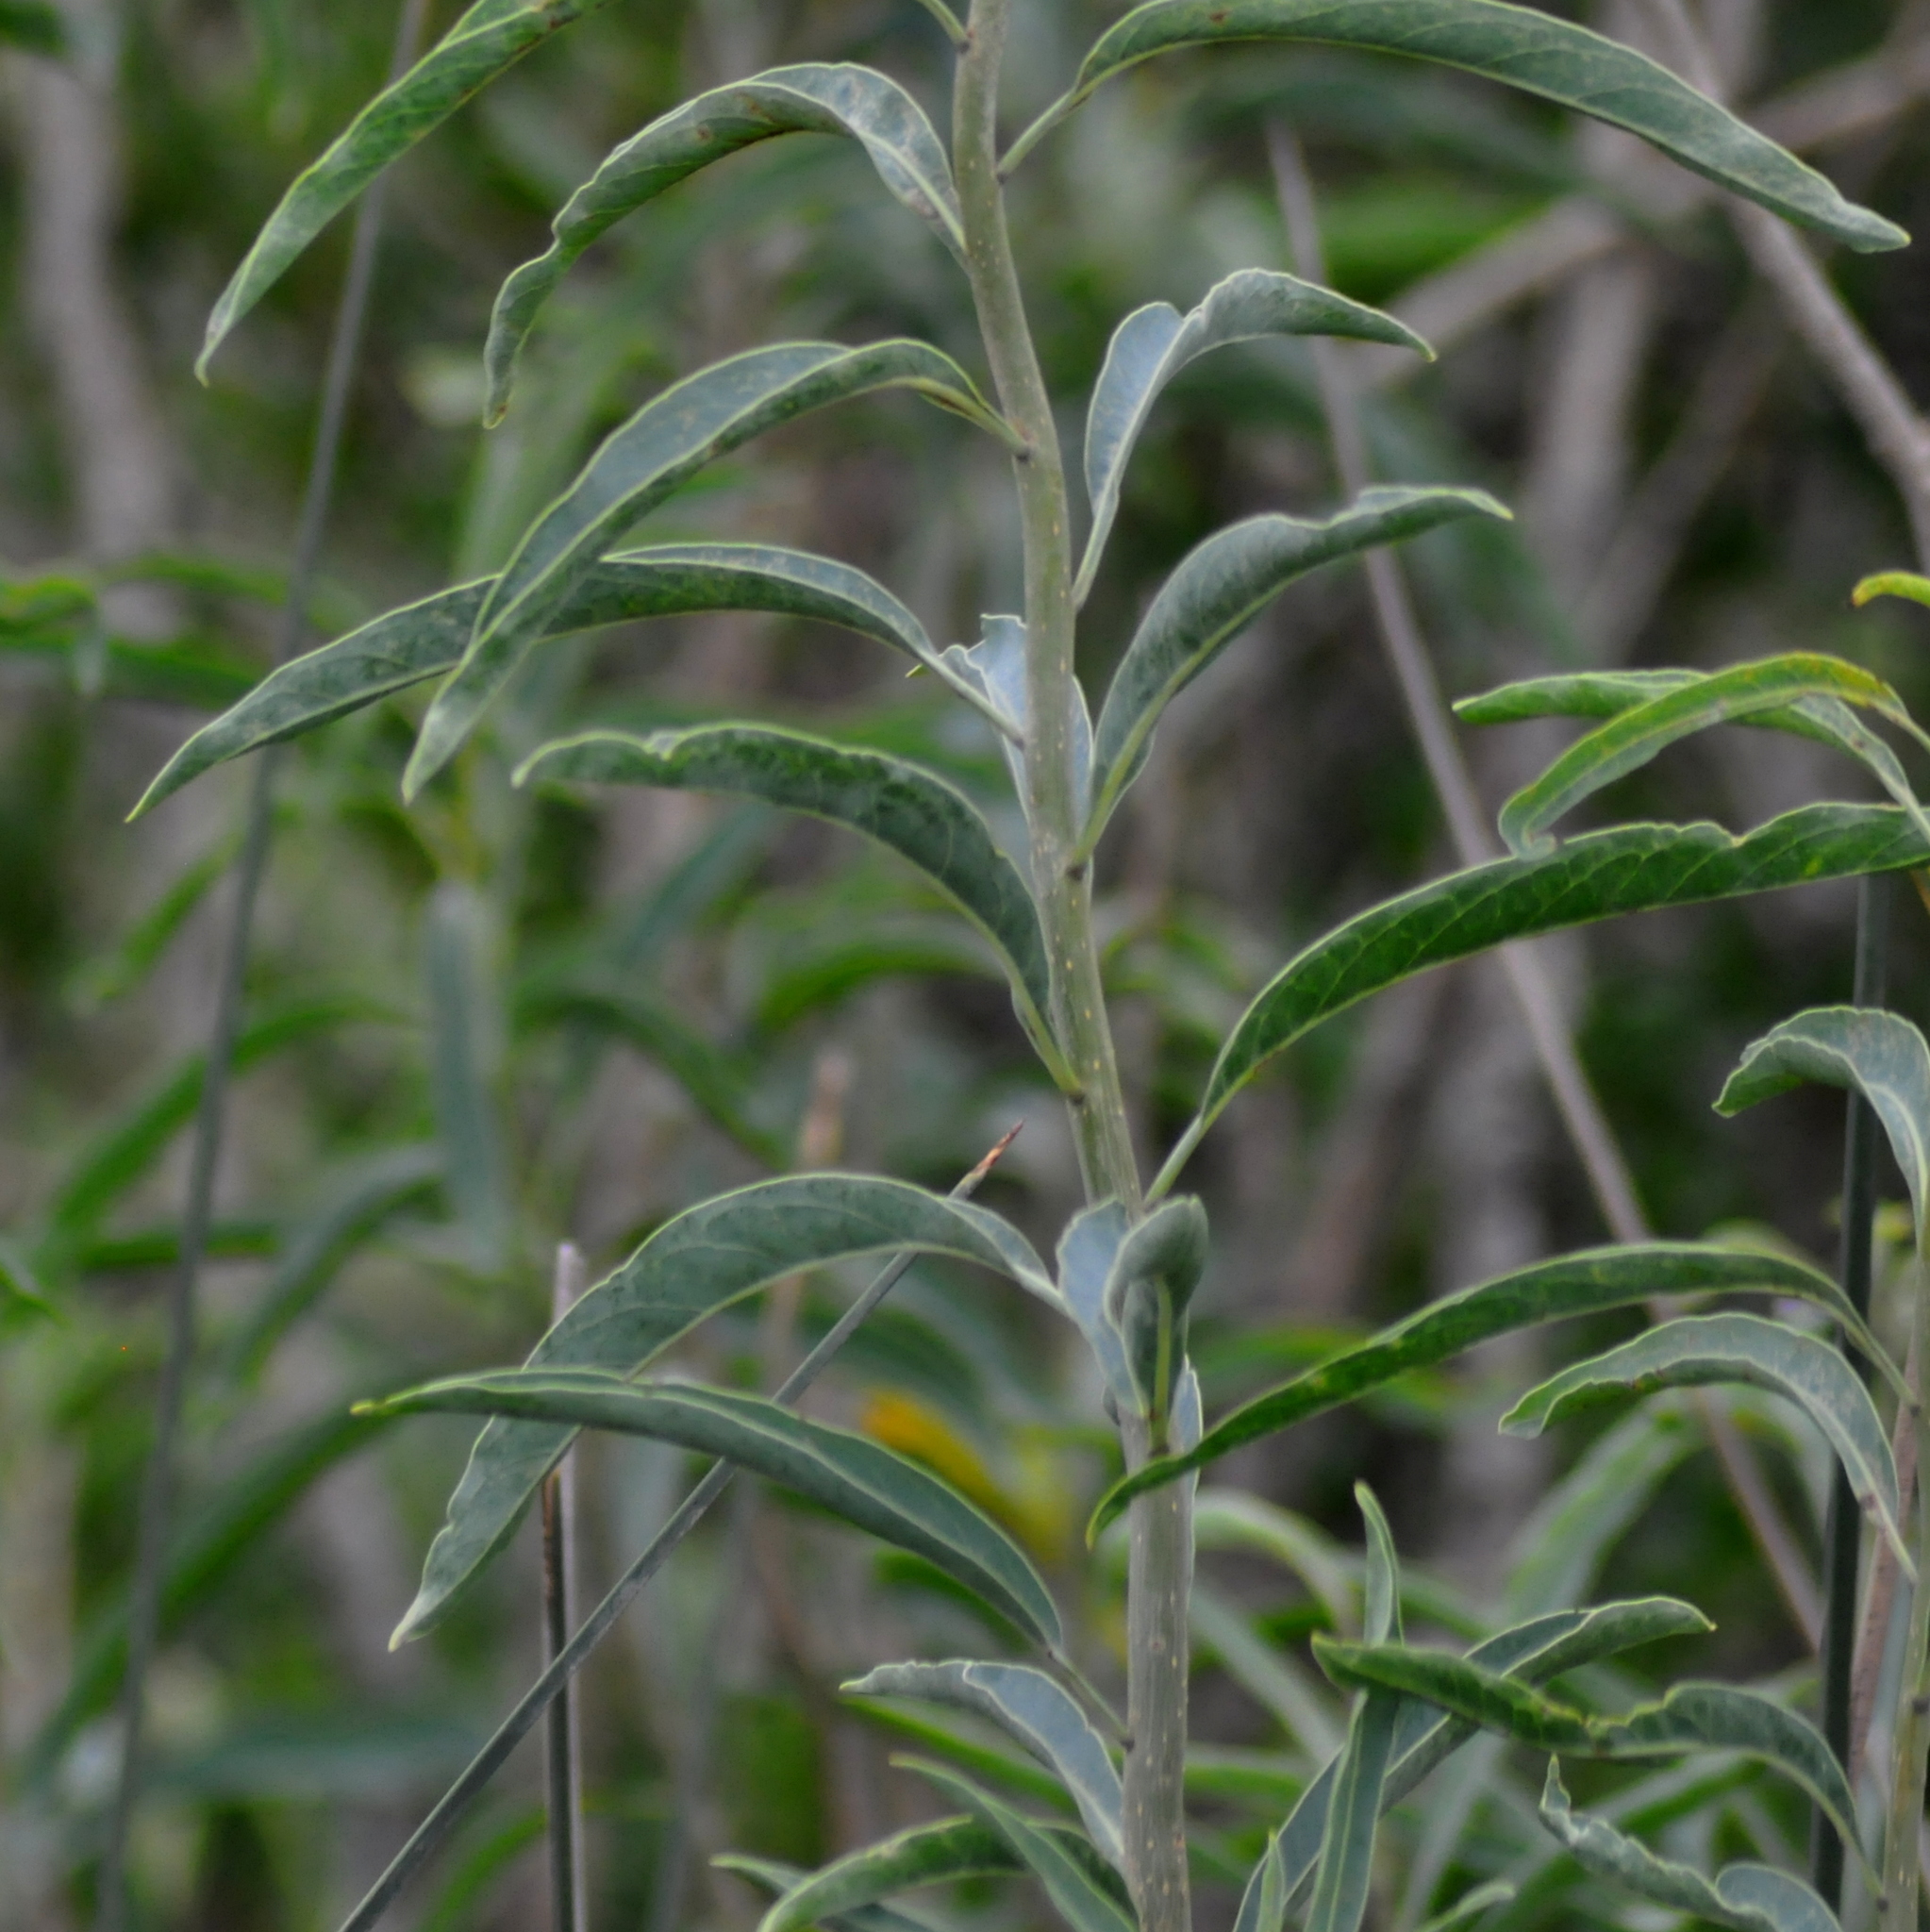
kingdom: Plantae
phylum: Tracheophyta
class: Magnoliopsida
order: Solanales
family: Solanaceae
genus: Solanum
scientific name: Solanum glaucophyllum
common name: Waxyleaf nightshade
